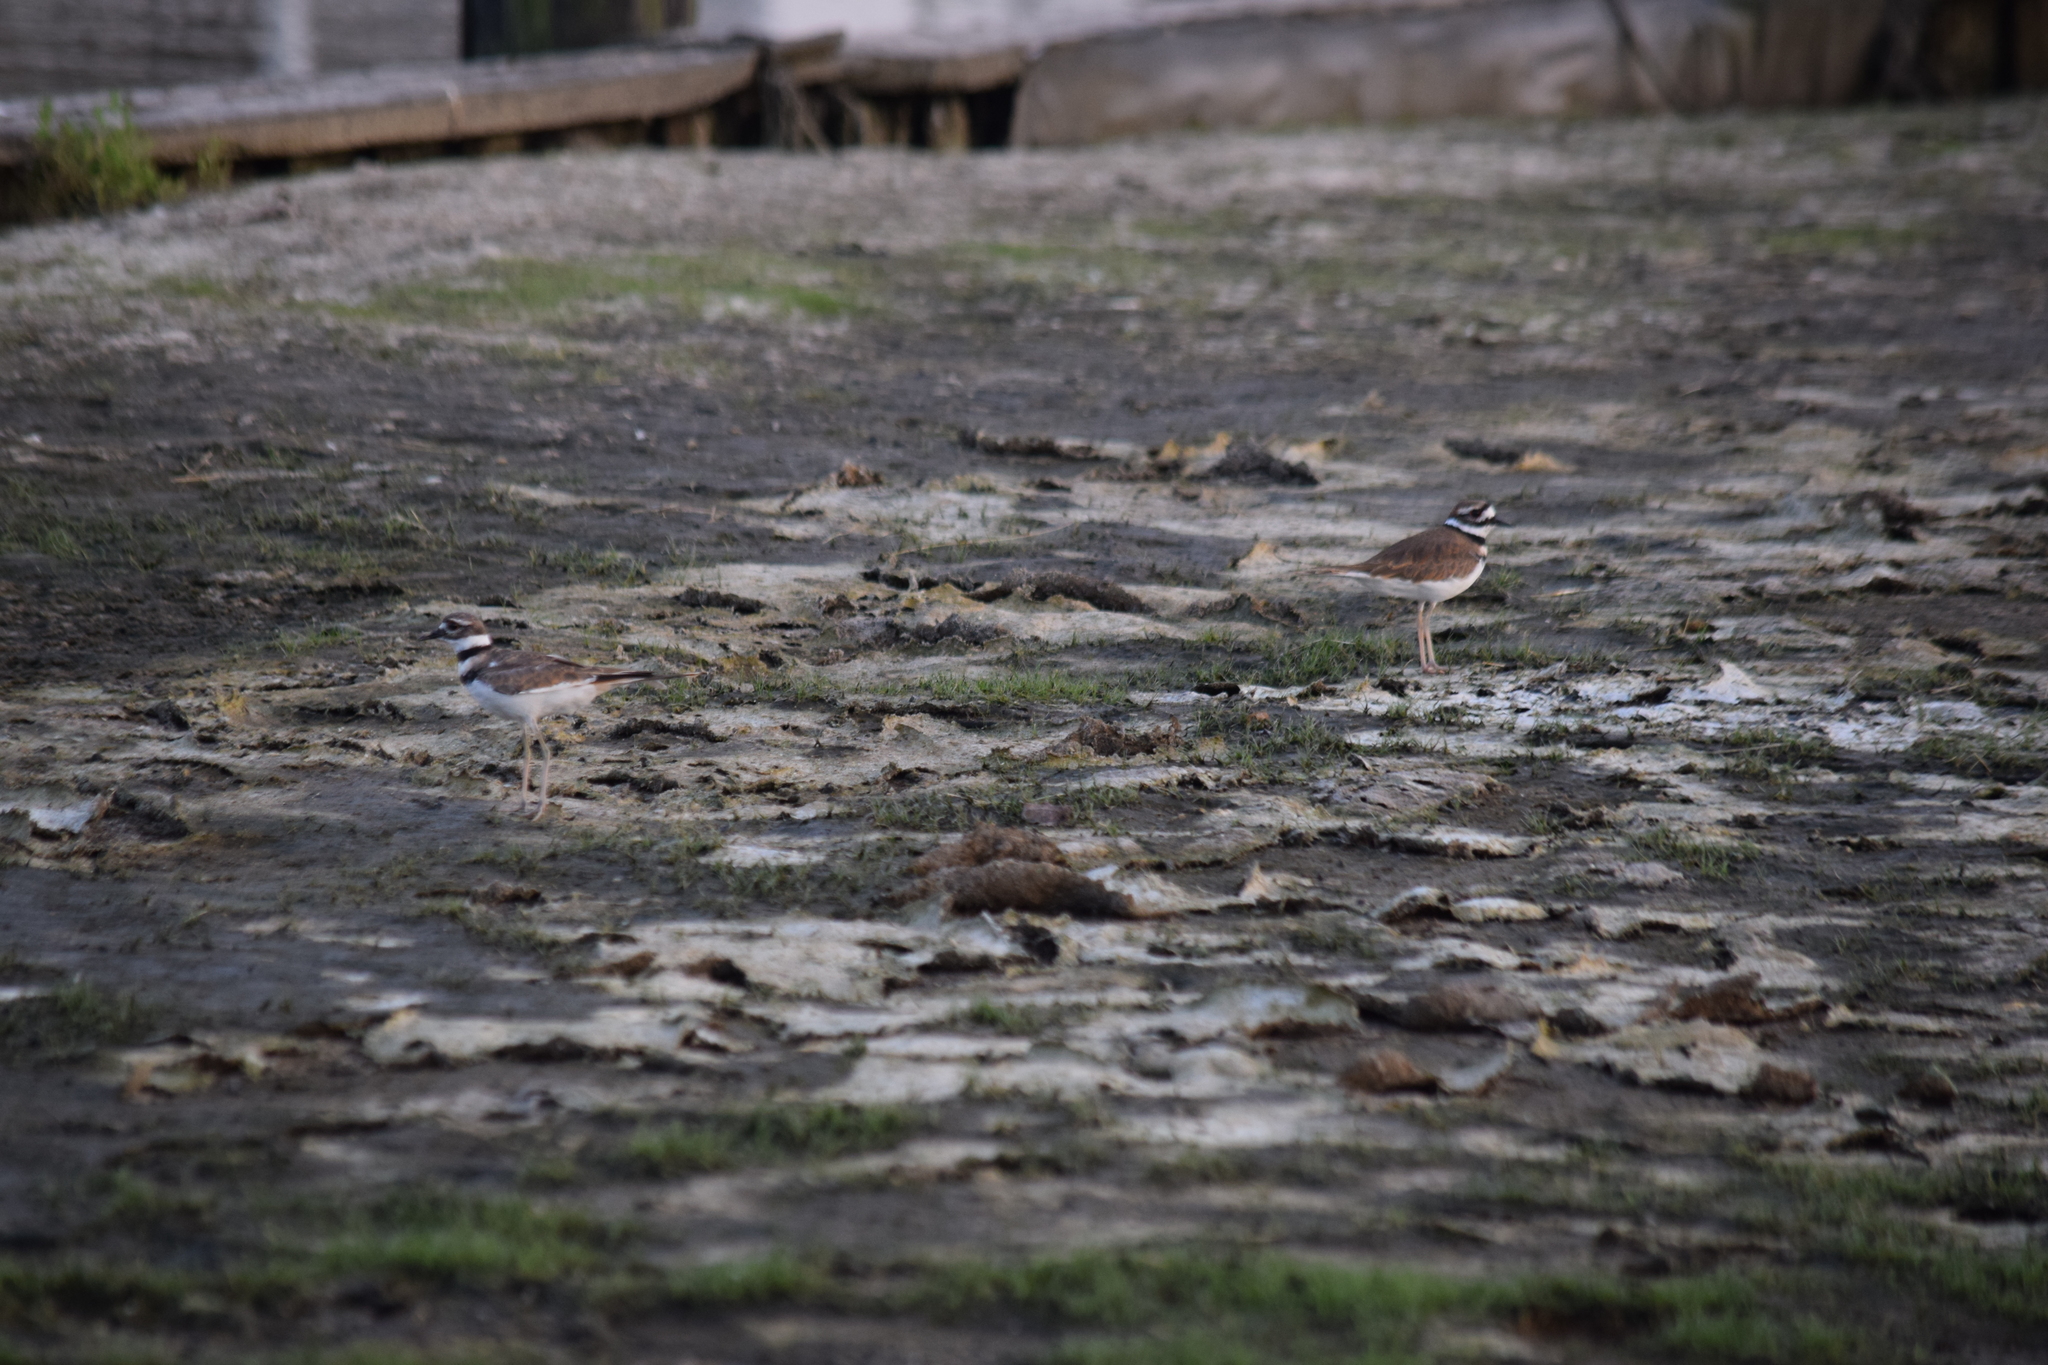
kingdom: Animalia
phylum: Chordata
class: Aves
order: Charadriiformes
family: Charadriidae
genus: Charadrius
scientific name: Charadrius vociferus
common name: Killdeer
